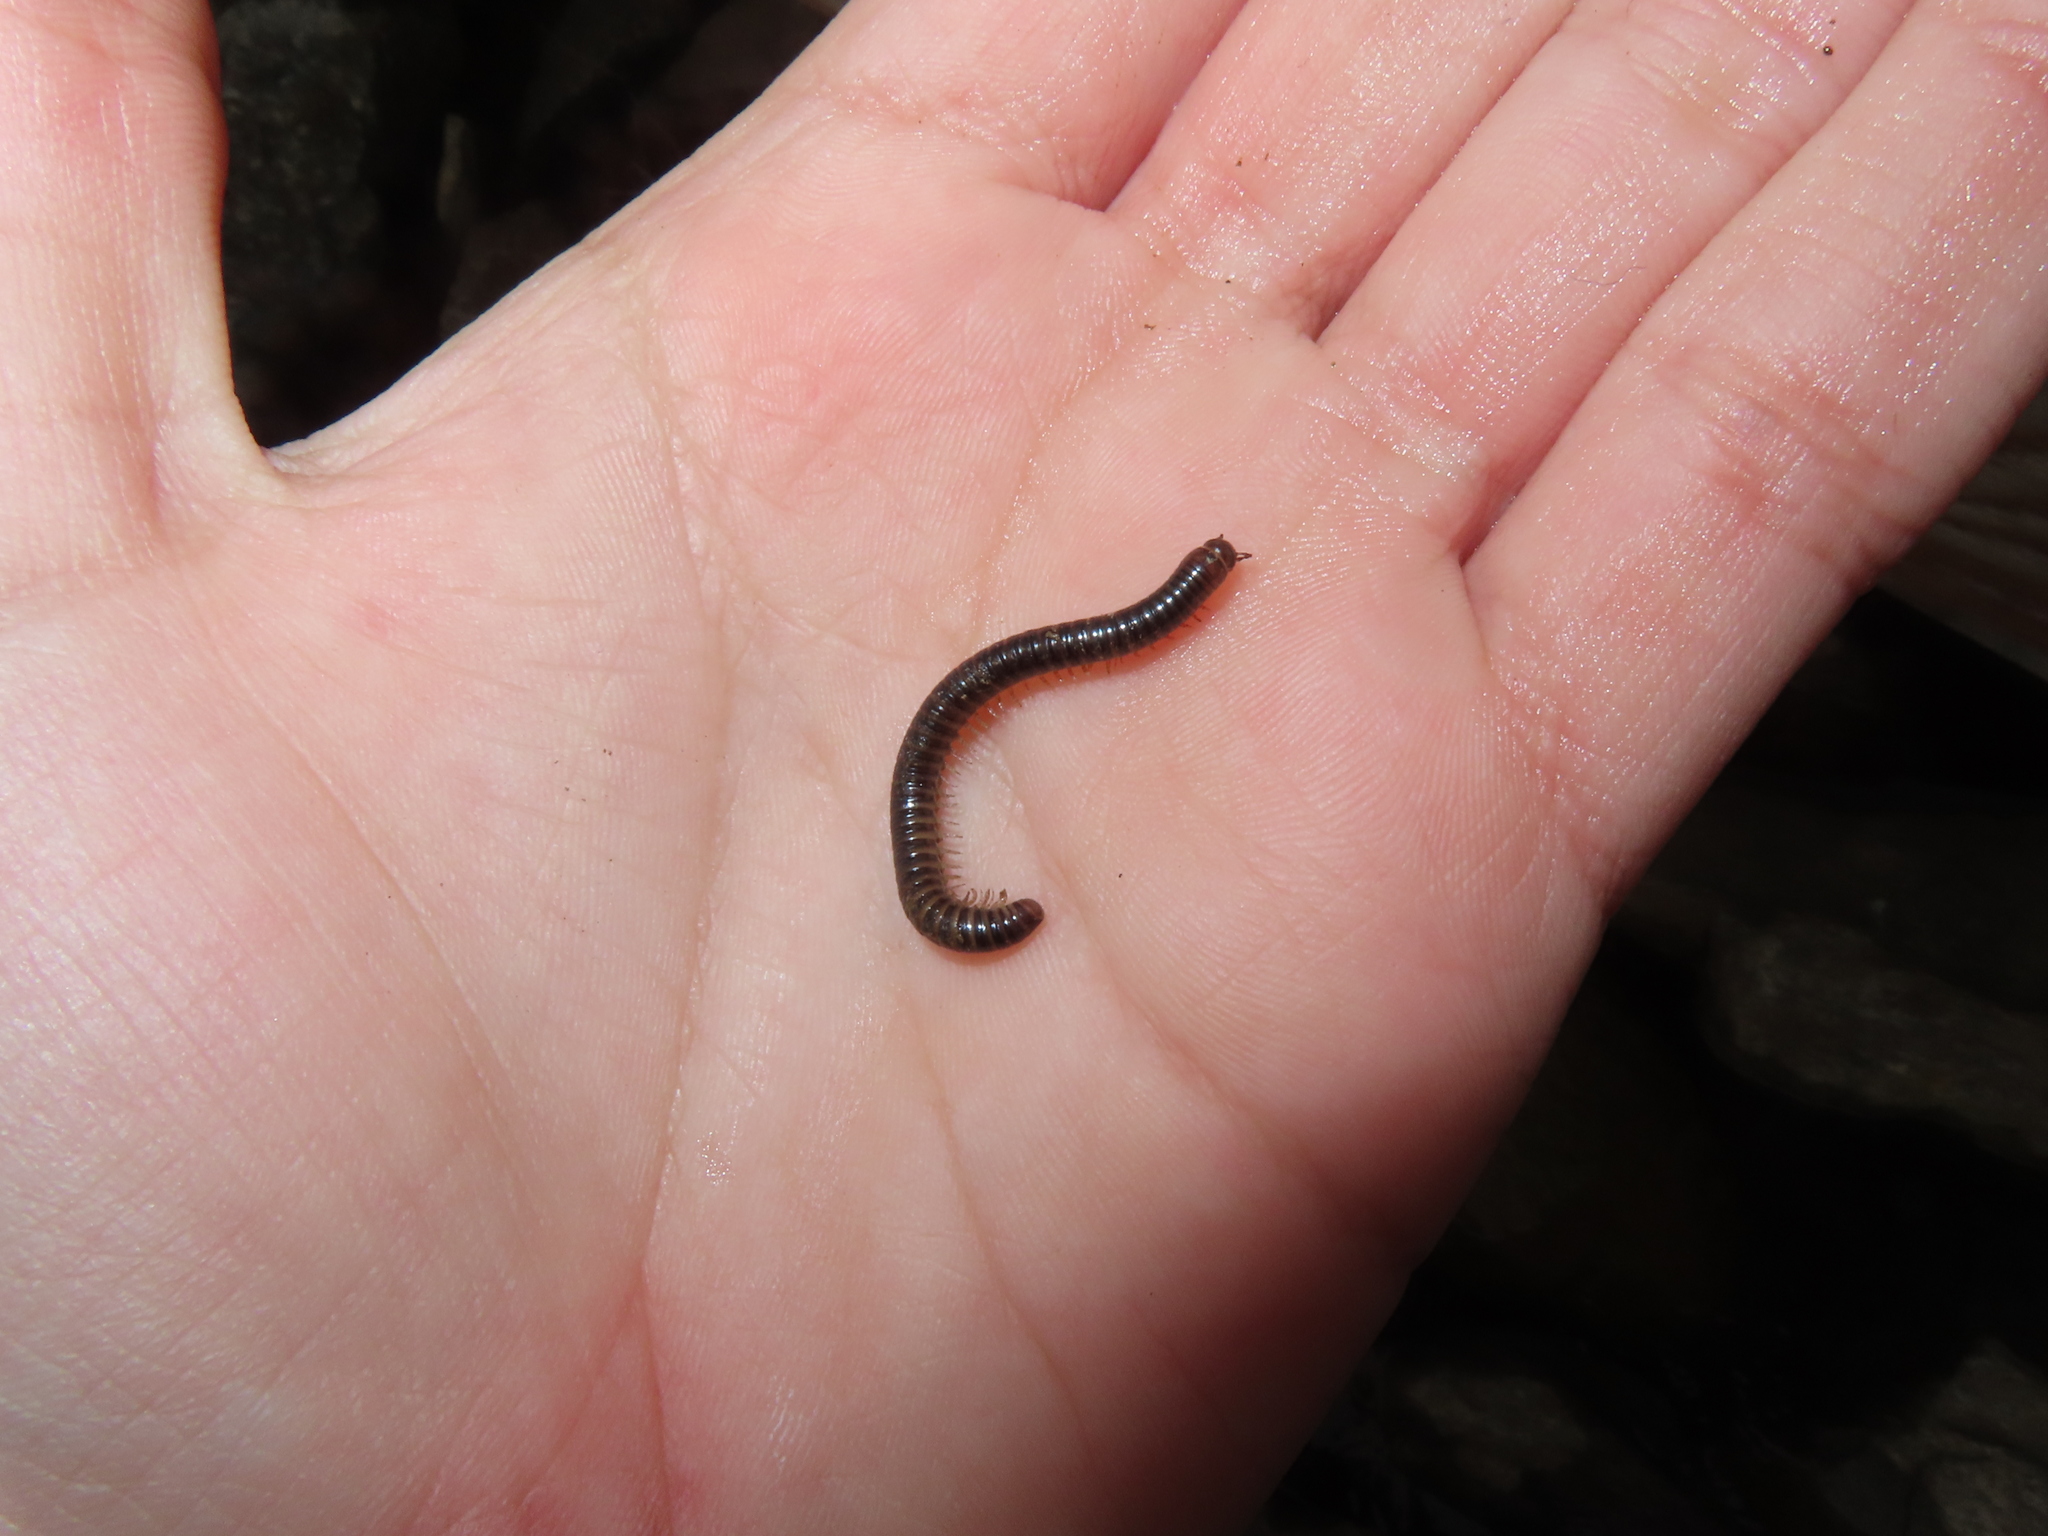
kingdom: Animalia
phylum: Arthropoda
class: Diplopoda
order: Julida
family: Julidae
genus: Cylindroiulus
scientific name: Cylindroiulus caeruleocinctus
